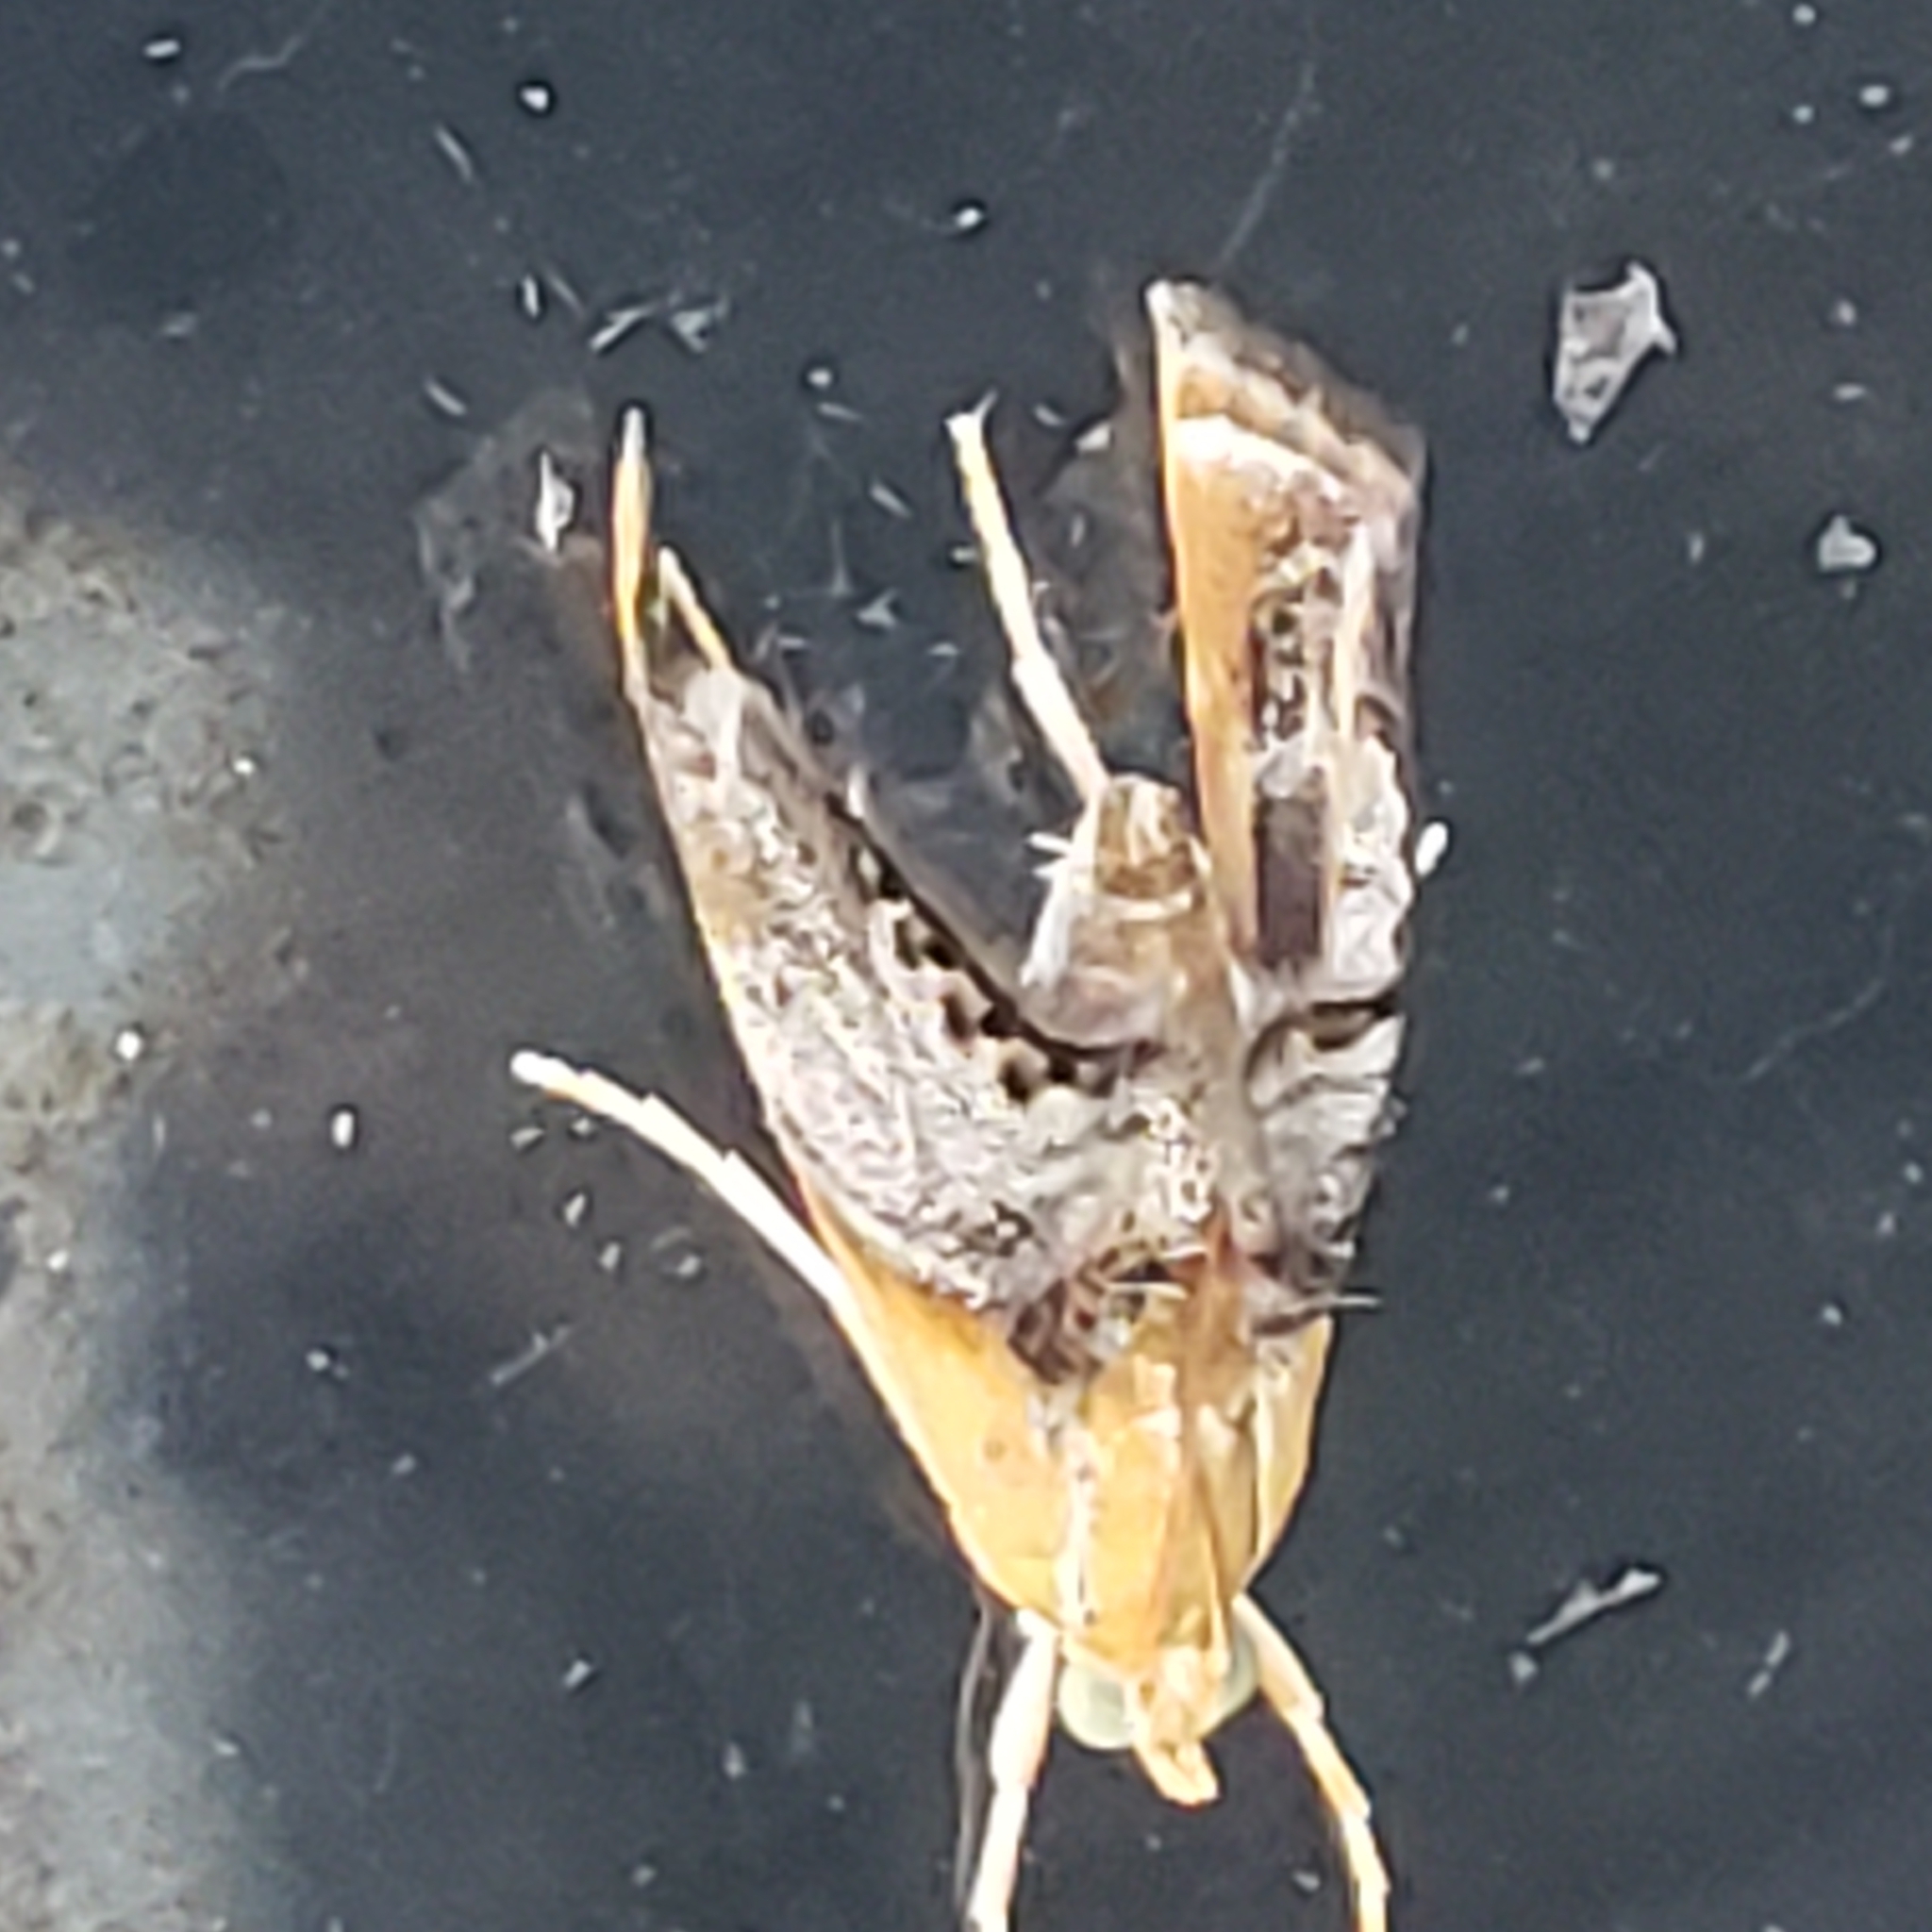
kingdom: Animalia
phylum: Arthropoda
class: Insecta
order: Lepidoptera
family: Crambidae
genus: Chalcoela
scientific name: Chalcoela iphitalis
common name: Sooty-winged chalcoela moth
